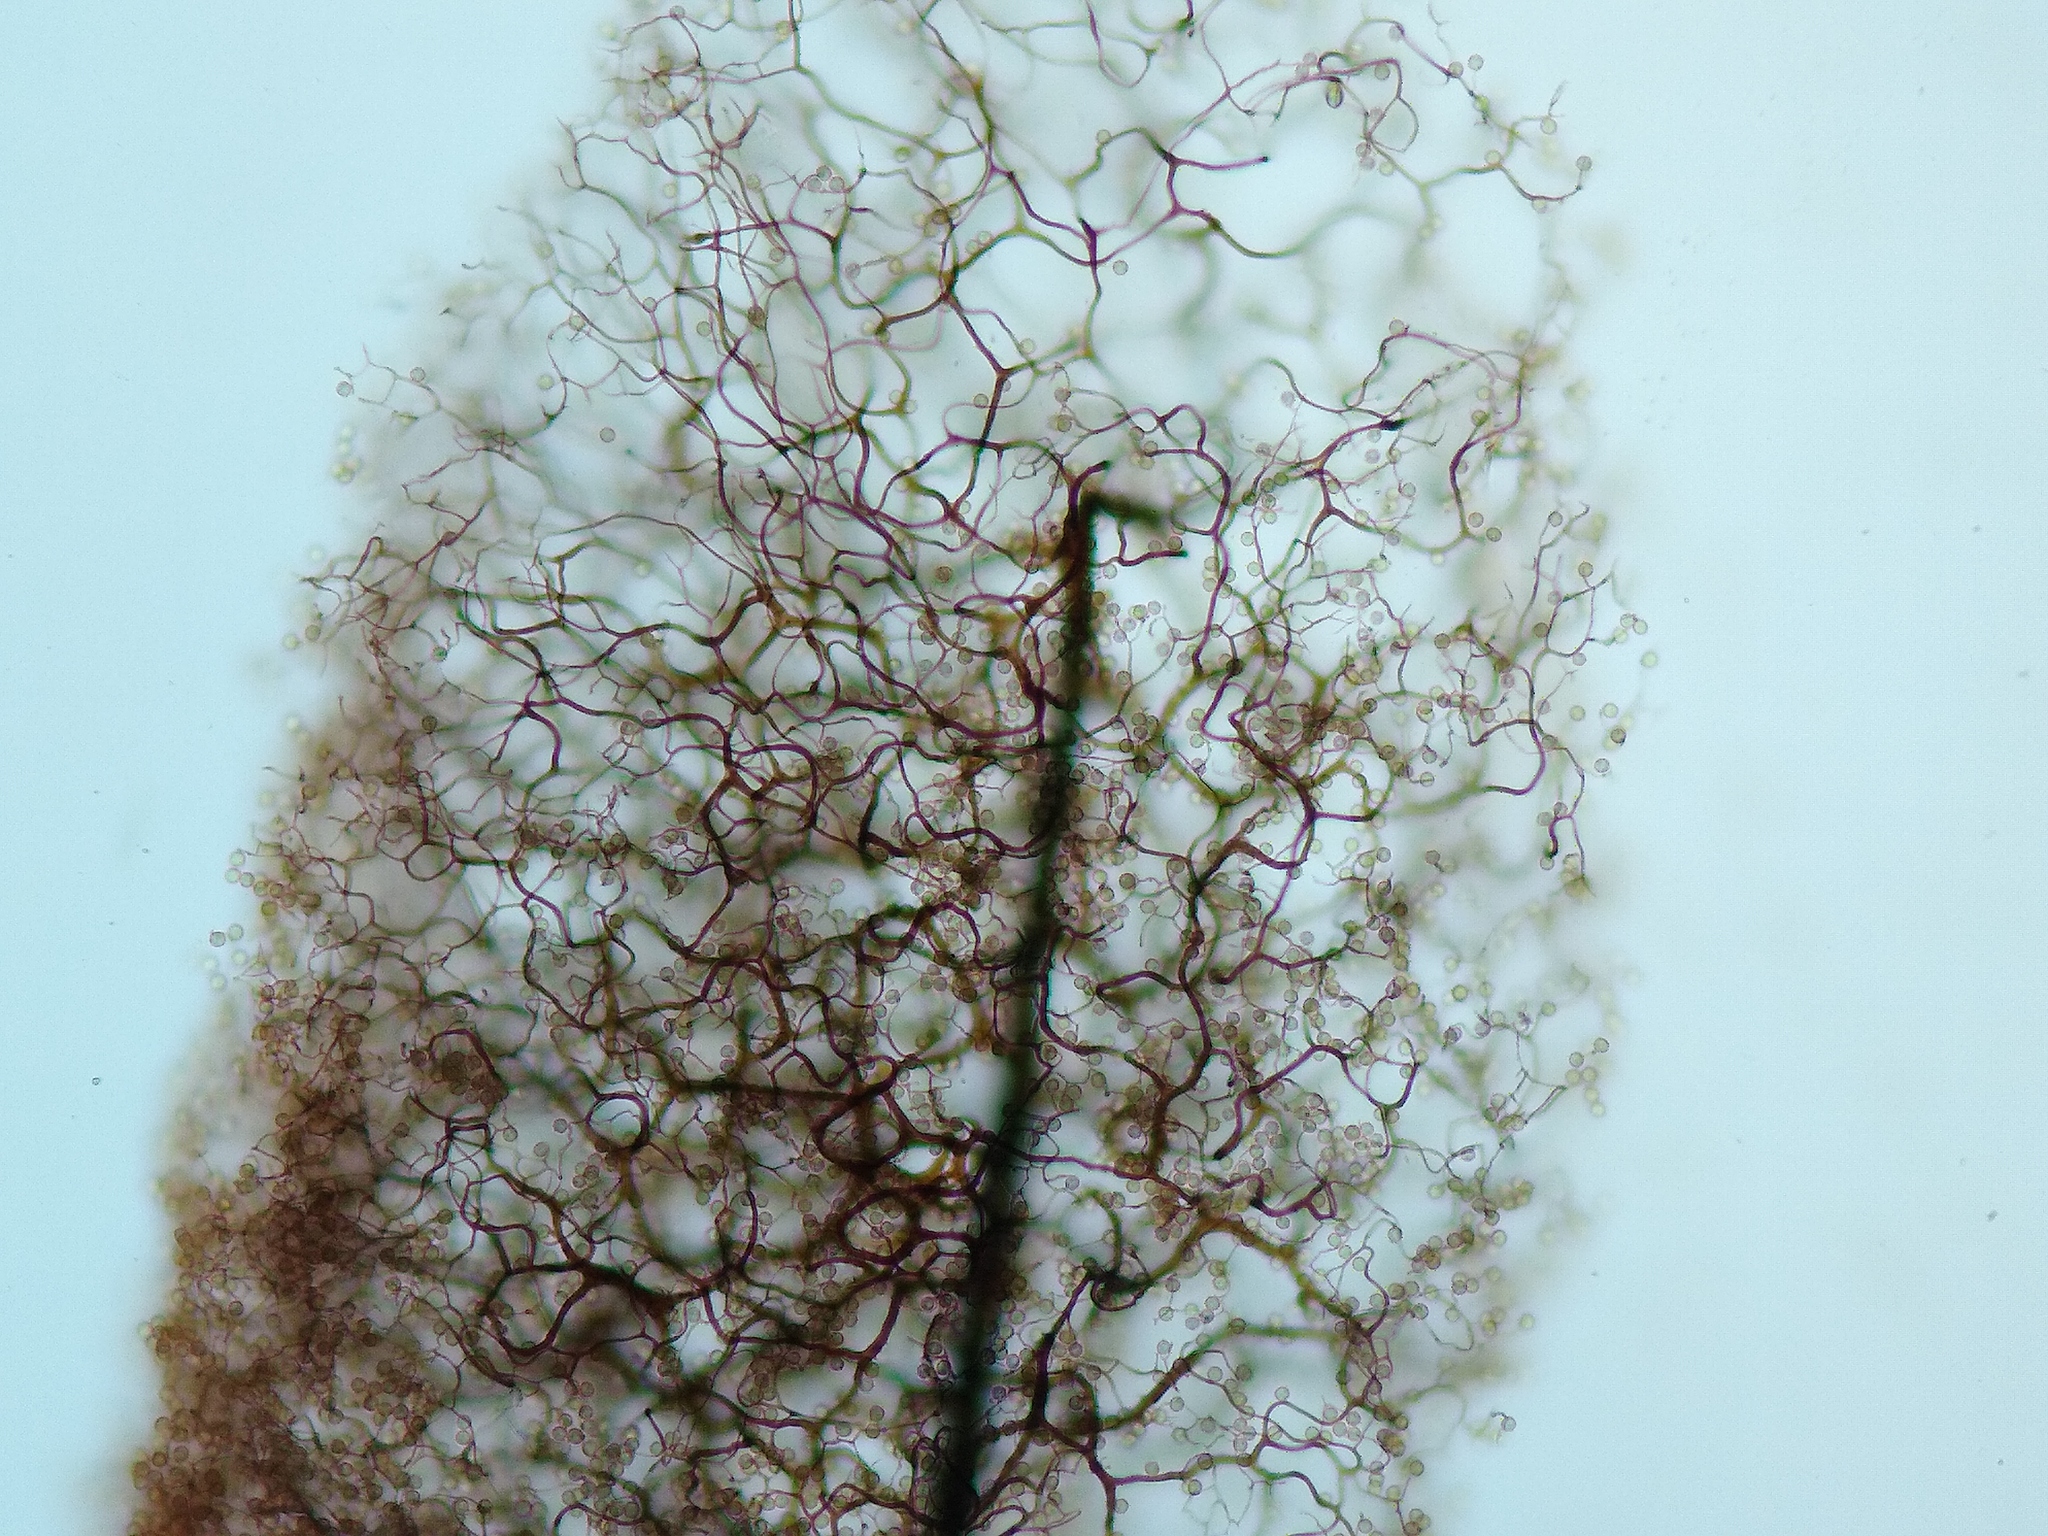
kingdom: Protozoa
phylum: Mycetozoa
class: Myxomycetes
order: Stemonitidales
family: Stemonitidaceae
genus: Stemonitopsis
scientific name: Stemonitopsis hyperopta
